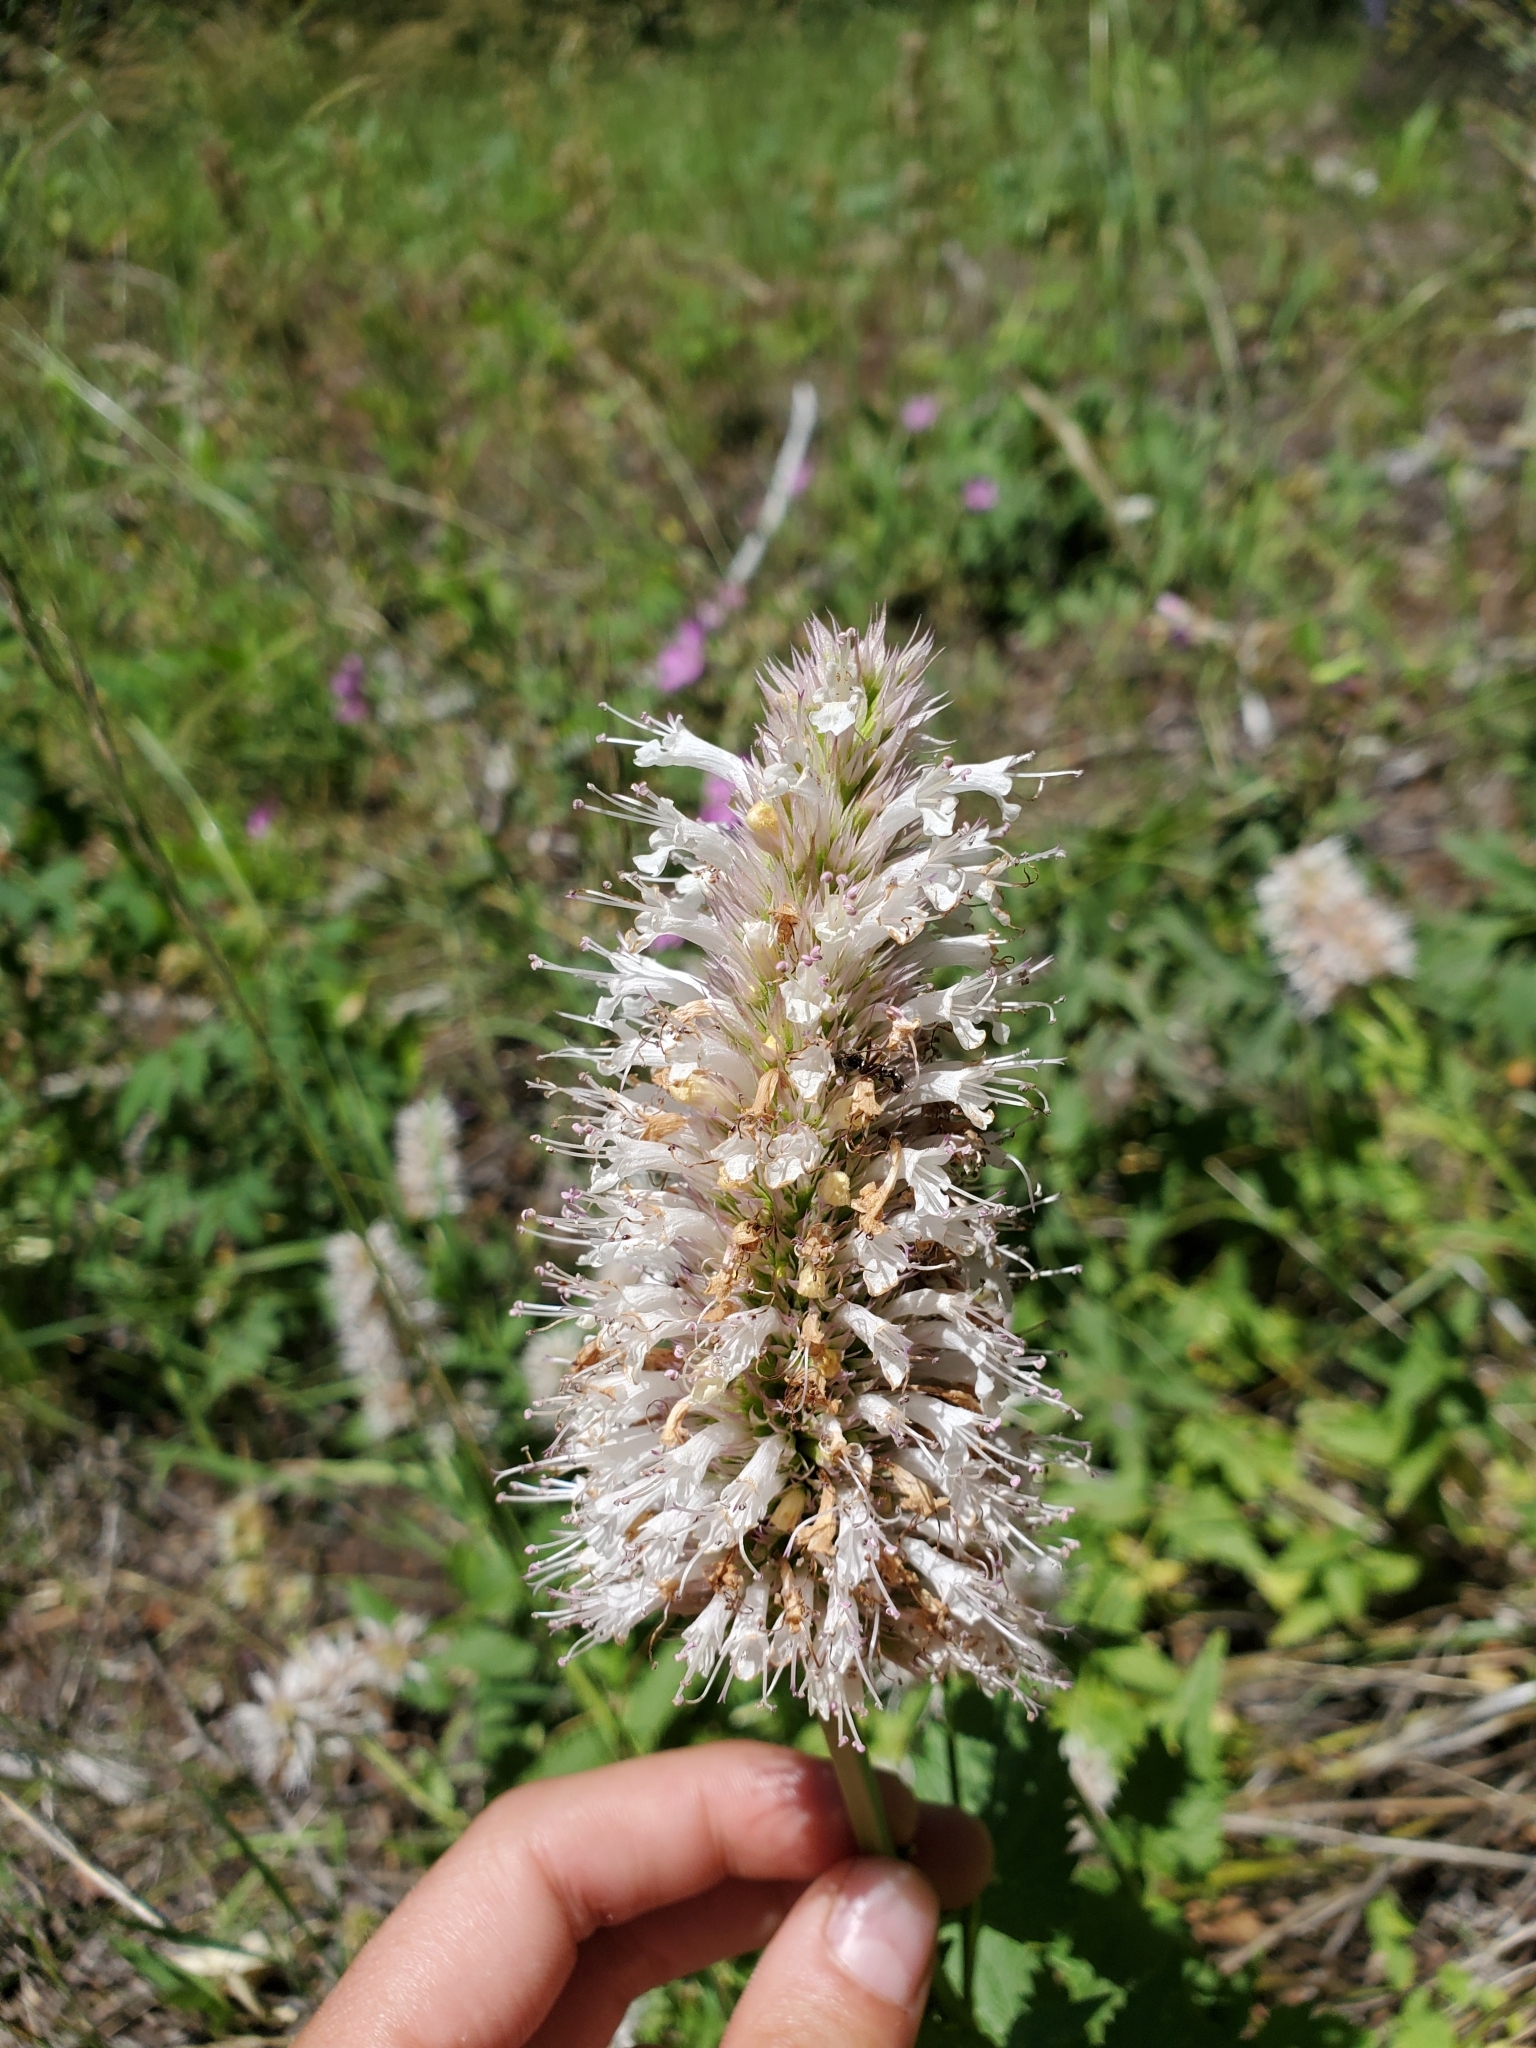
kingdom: Plantae
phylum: Tracheophyta
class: Magnoliopsida
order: Lamiales
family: Lamiaceae
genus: Agastache
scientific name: Agastache urticifolia
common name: Horsemint giant hyssop
